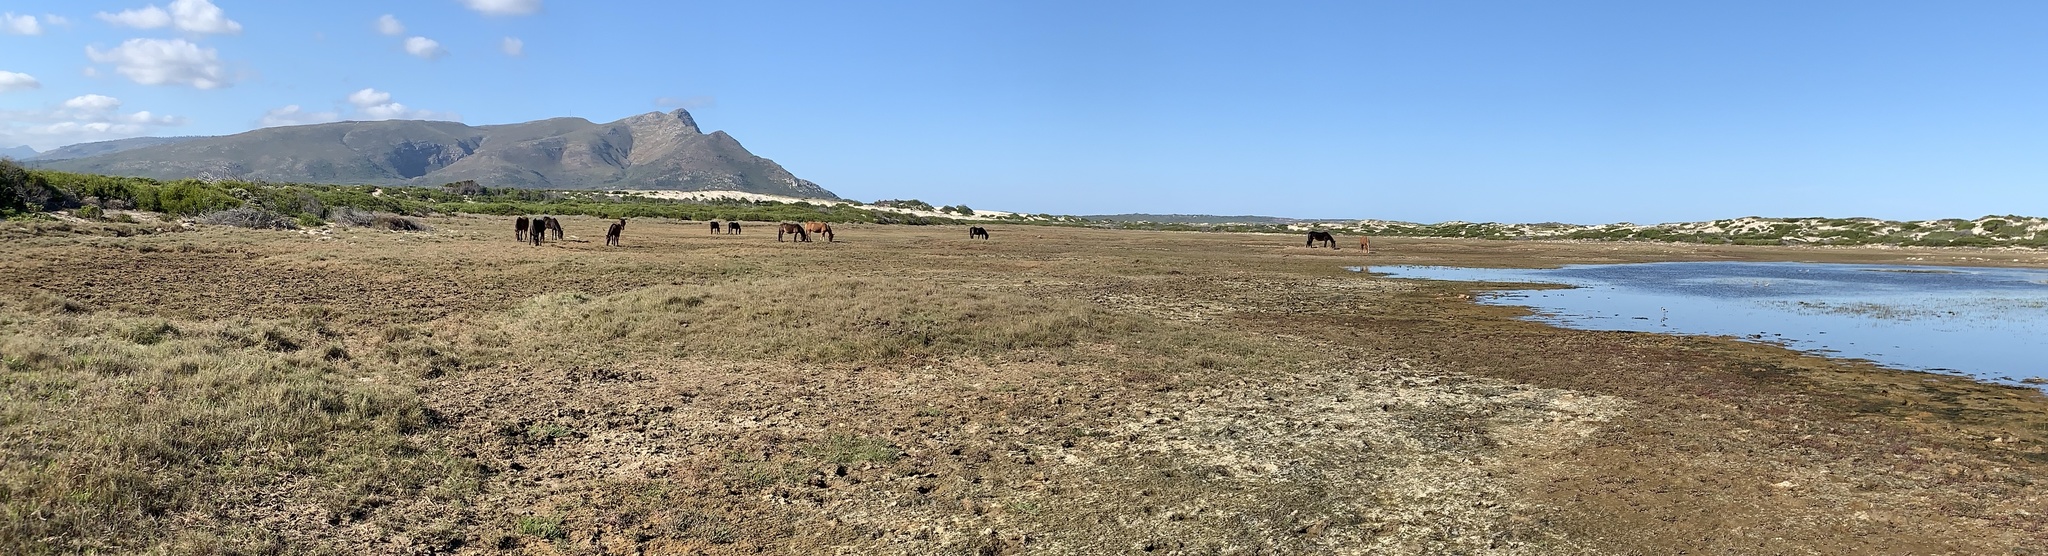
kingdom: Animalia
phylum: Chordata
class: Mammalia
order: Perissodactyla
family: Equidae
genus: Equus
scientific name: Equus caballus
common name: Horse
